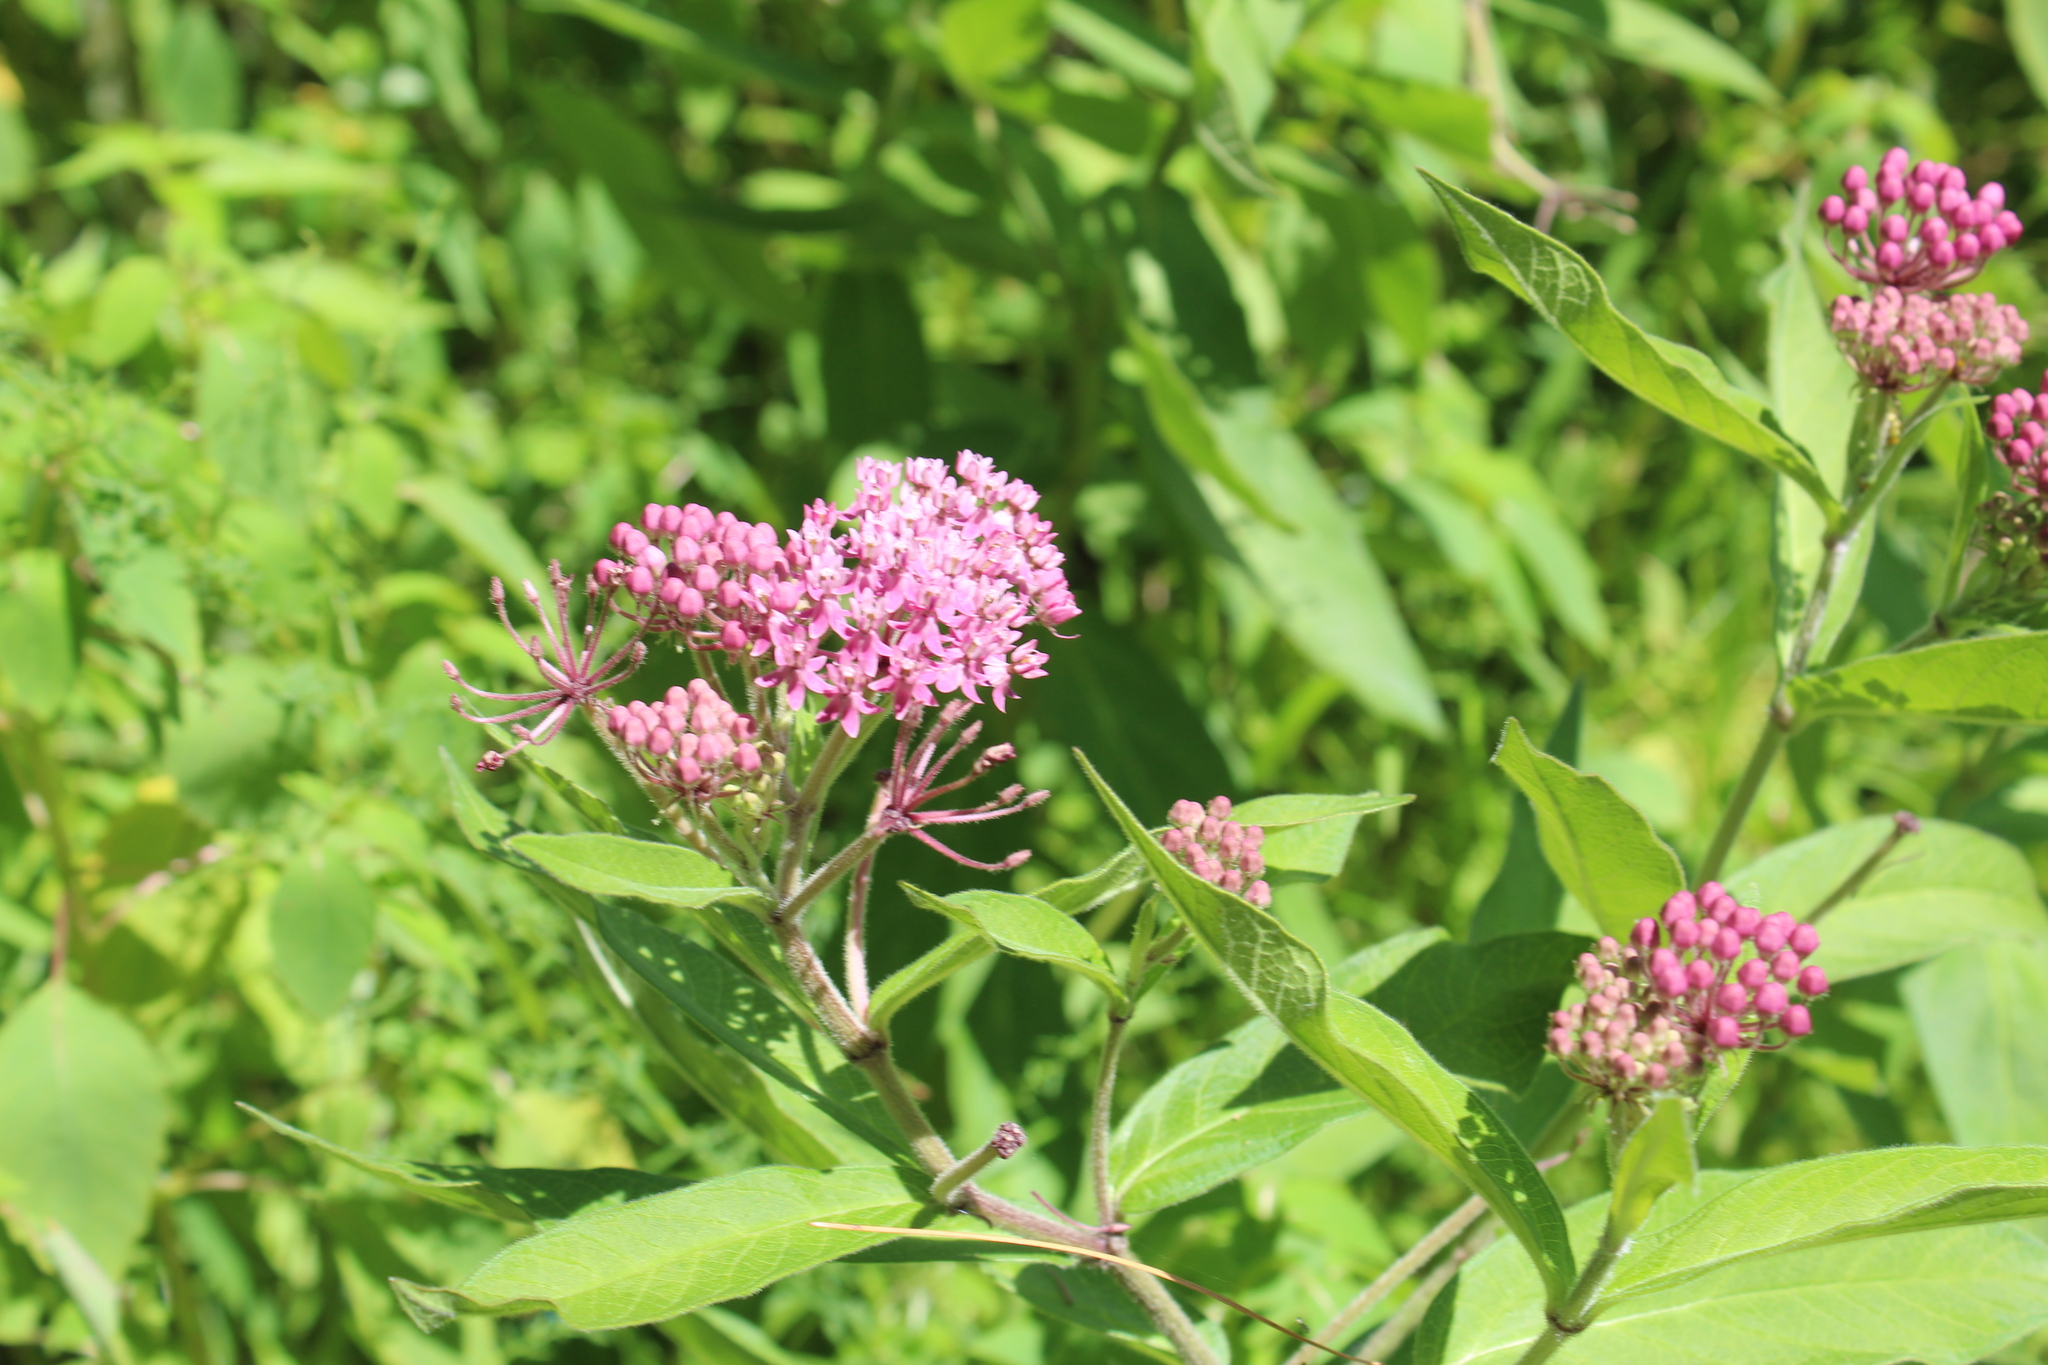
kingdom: Plantae
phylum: Tracheophyta
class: Magnoliopsida
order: Gentianales
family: Apocynaceae
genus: Asclepias
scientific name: Asclepias incarnata
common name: Swamp milkweed
